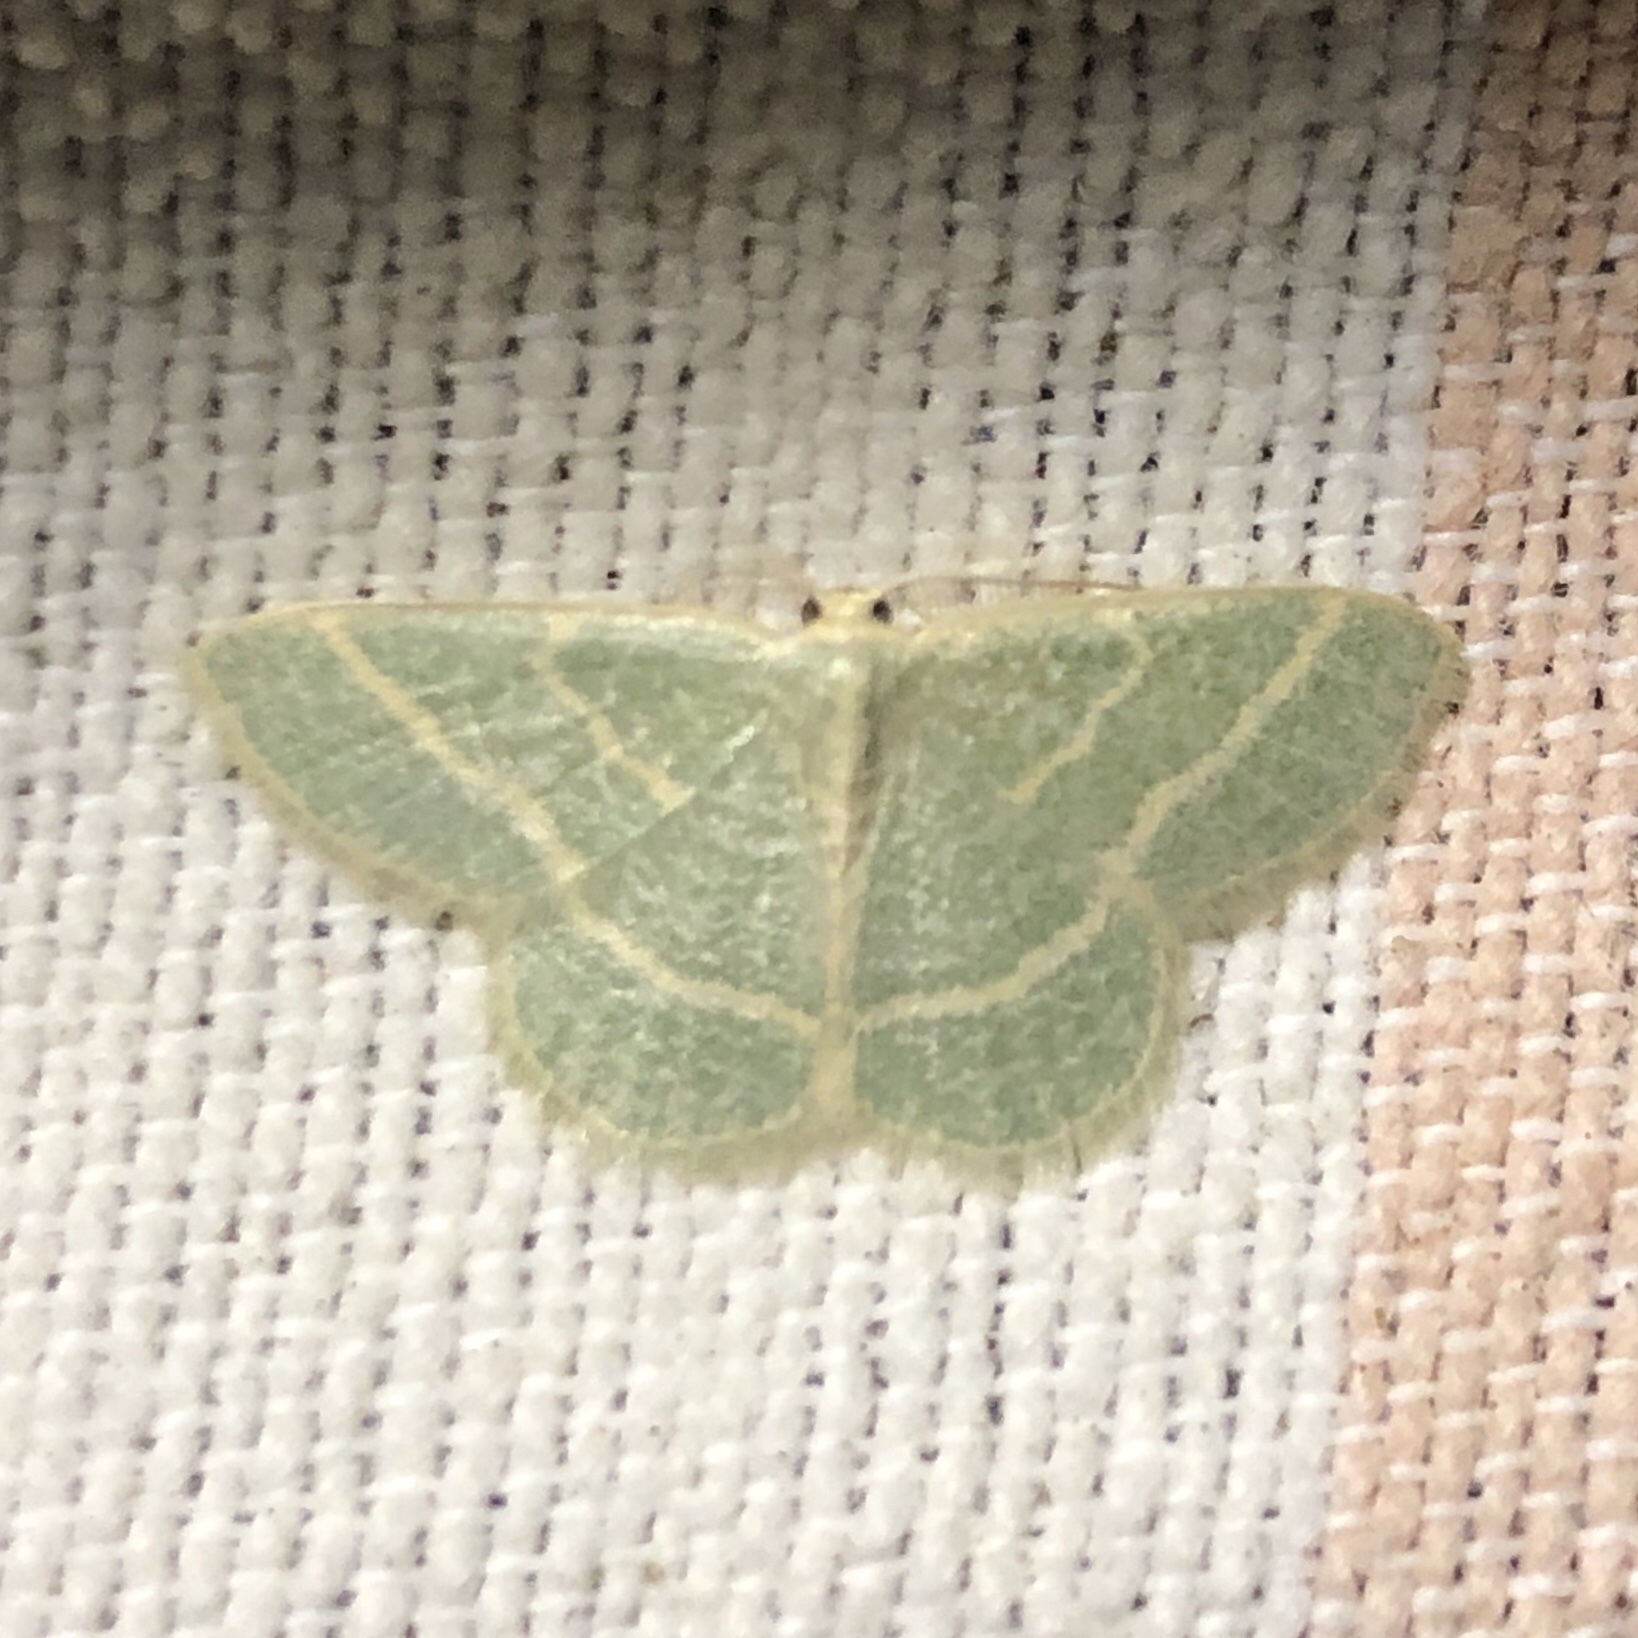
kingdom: Animalia
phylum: Arthropoda
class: Insecta
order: Lepidoptera
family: Geometridae
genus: Chlorochlamys
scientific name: Chlorochlamys chloroleucaria
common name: Blackberry looper
